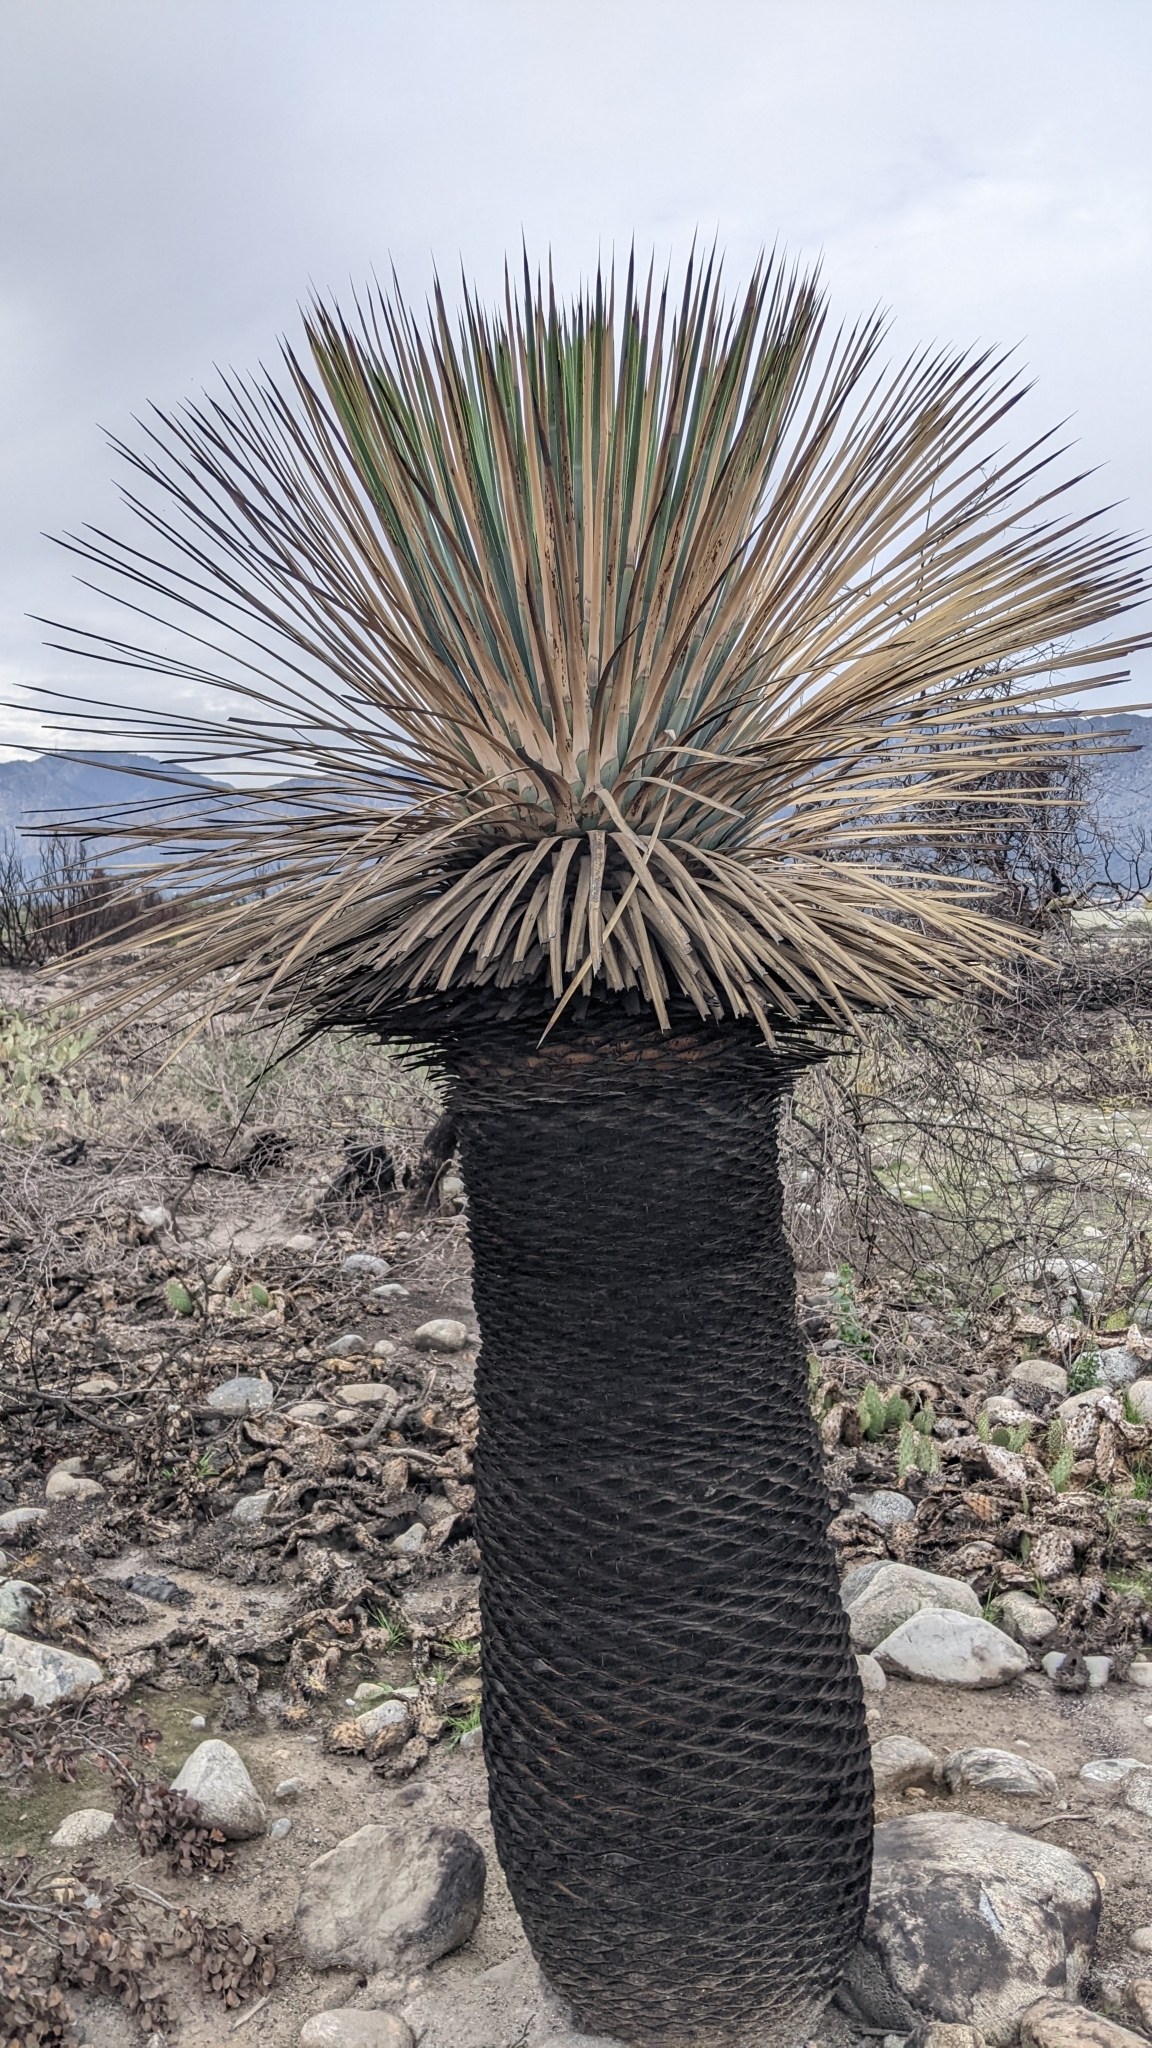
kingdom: Plantae
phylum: Tracheophyta
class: Liliopsida
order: Asparagales
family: Asparagaceae
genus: Hesperoyucca
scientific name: Hesperoyucca whipplei
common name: Our lord's-candle
